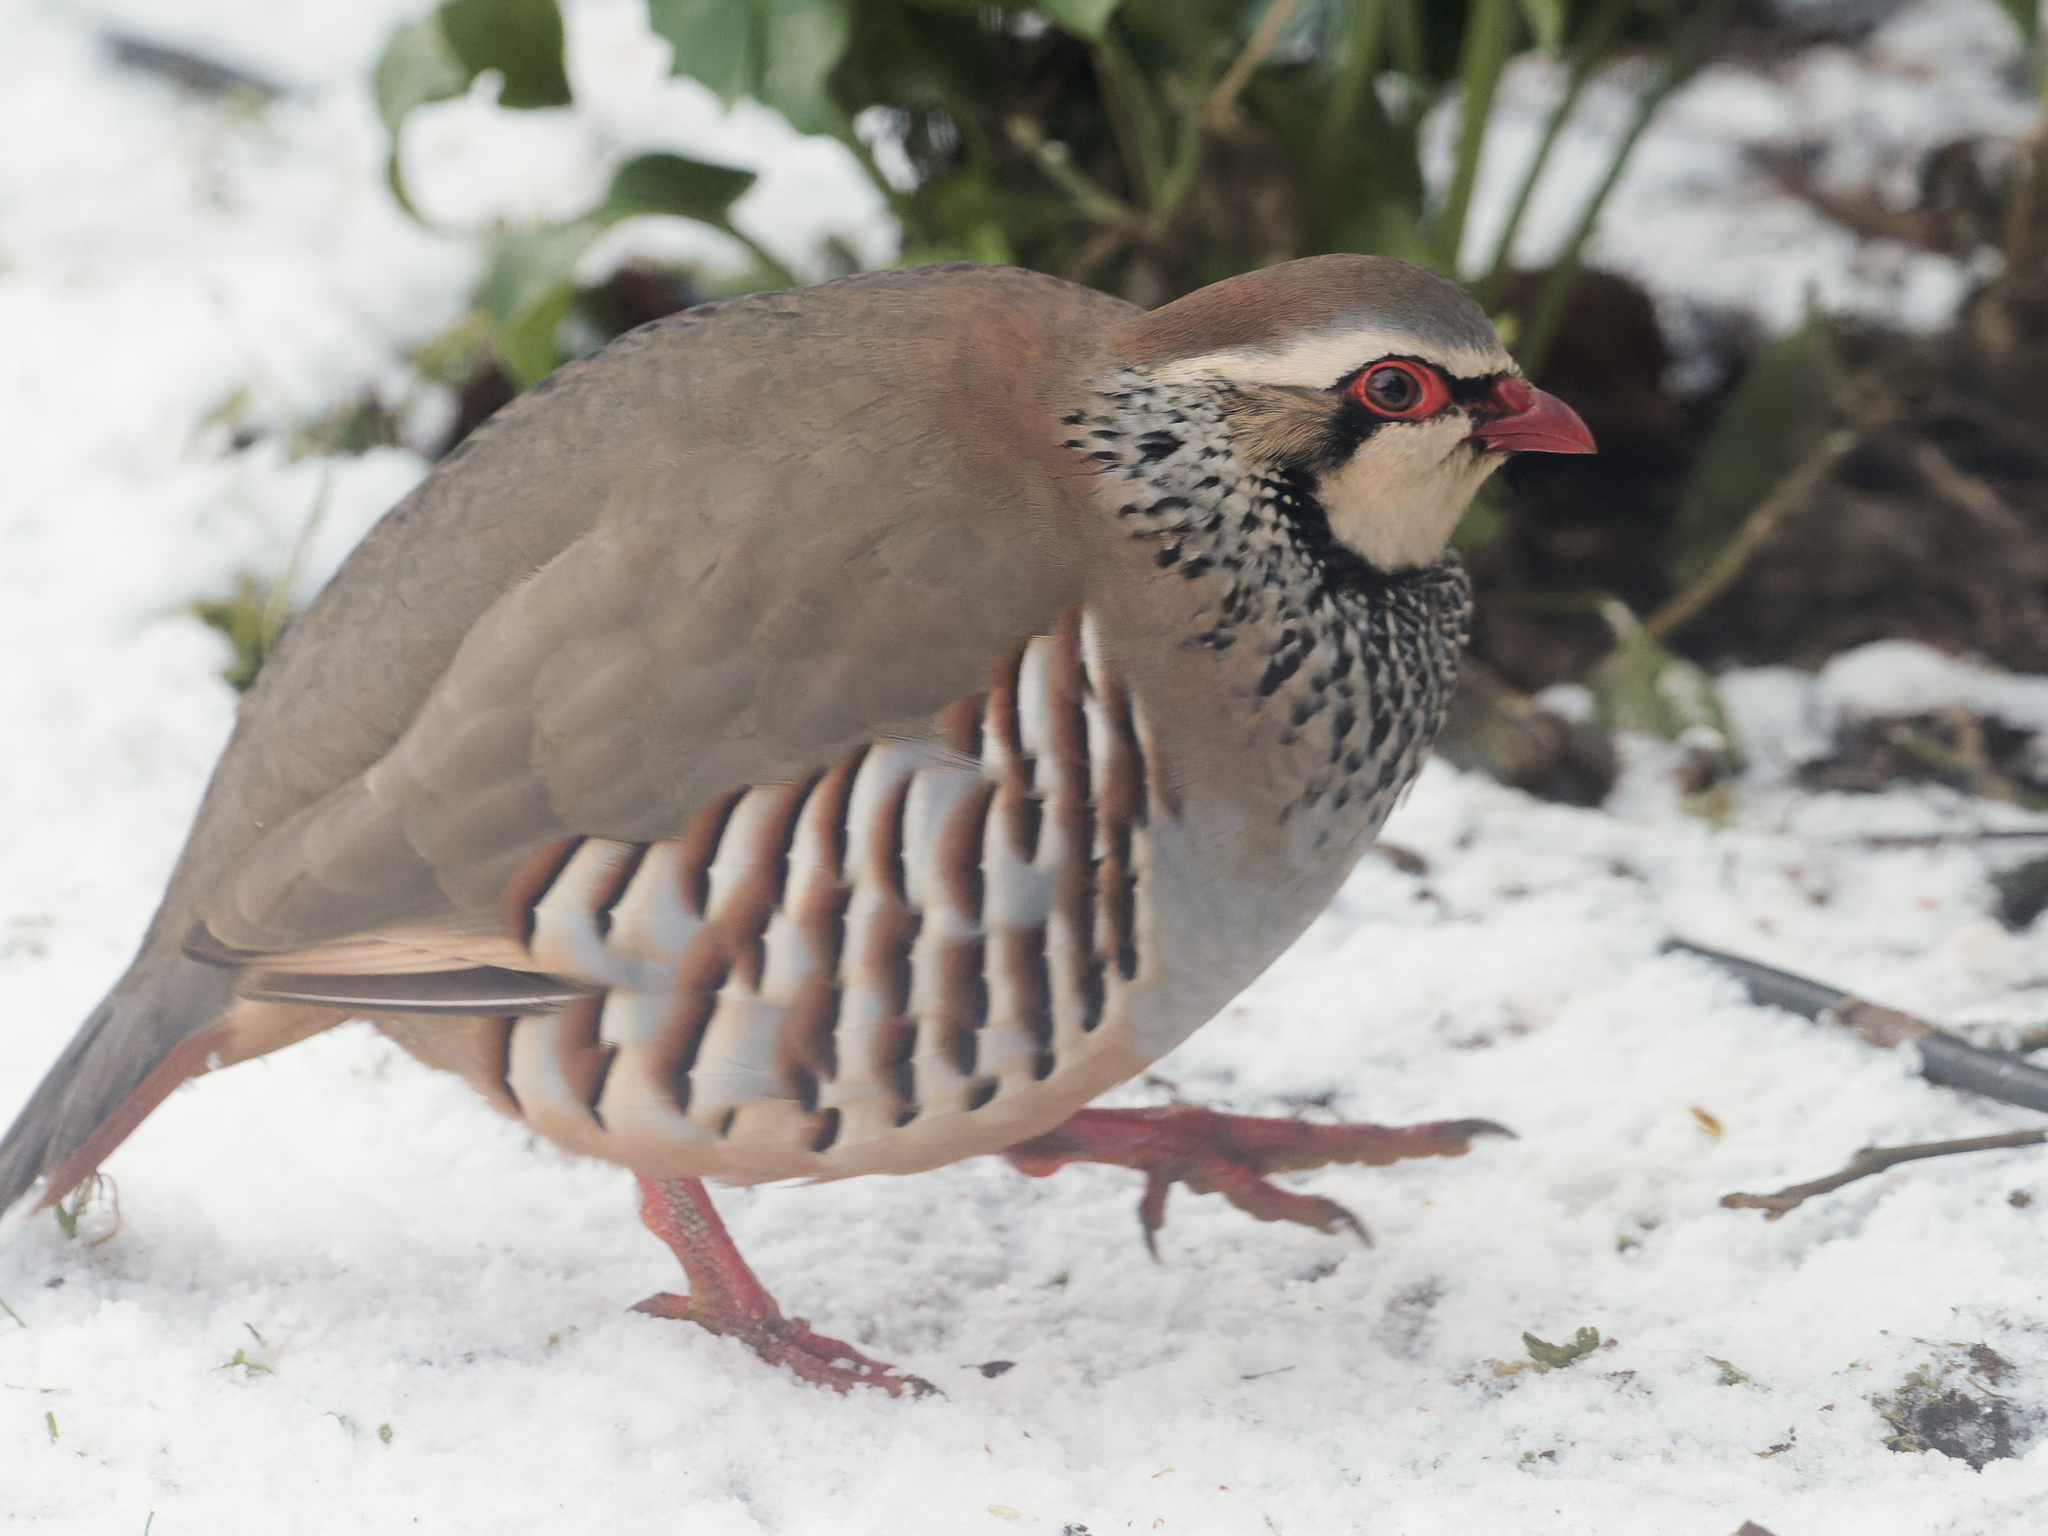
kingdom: Animalia
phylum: Chordata
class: Aves
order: Galliformes
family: Phasianidae
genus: Alectoris
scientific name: Alectoris rufa
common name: Red-legged partridge
